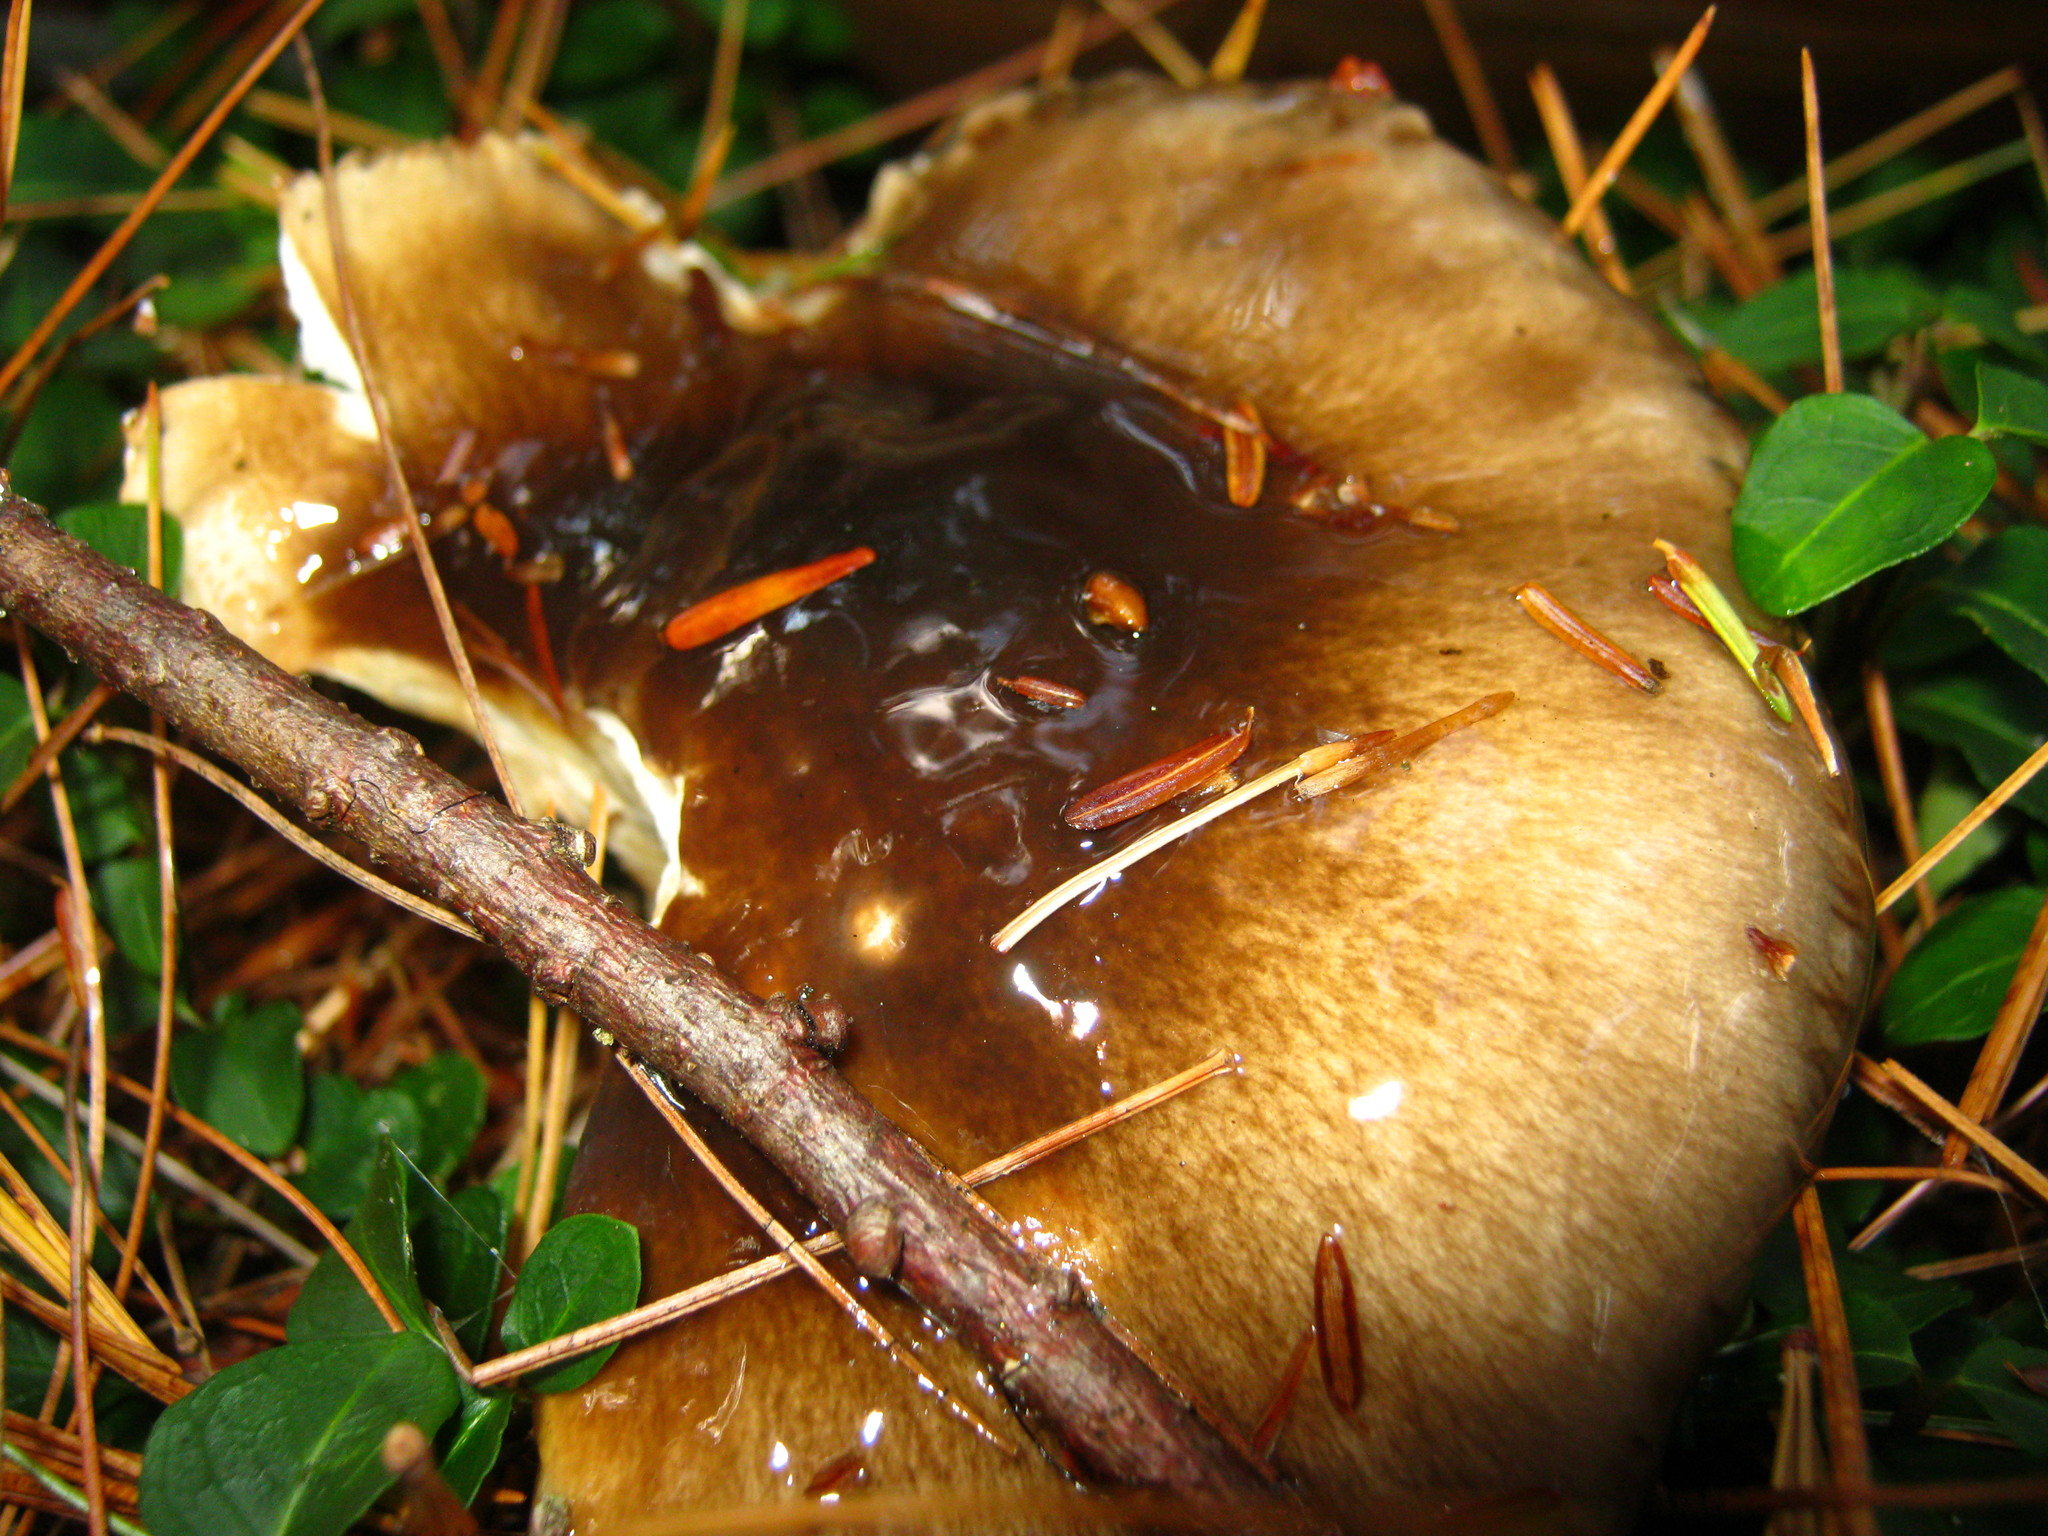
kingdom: Fungi
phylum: Basidiomycota
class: Agaricomycetes
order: Agaricales
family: Hygrophoraceae
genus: Hygrophorus
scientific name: Hygrophorus fuligineus
